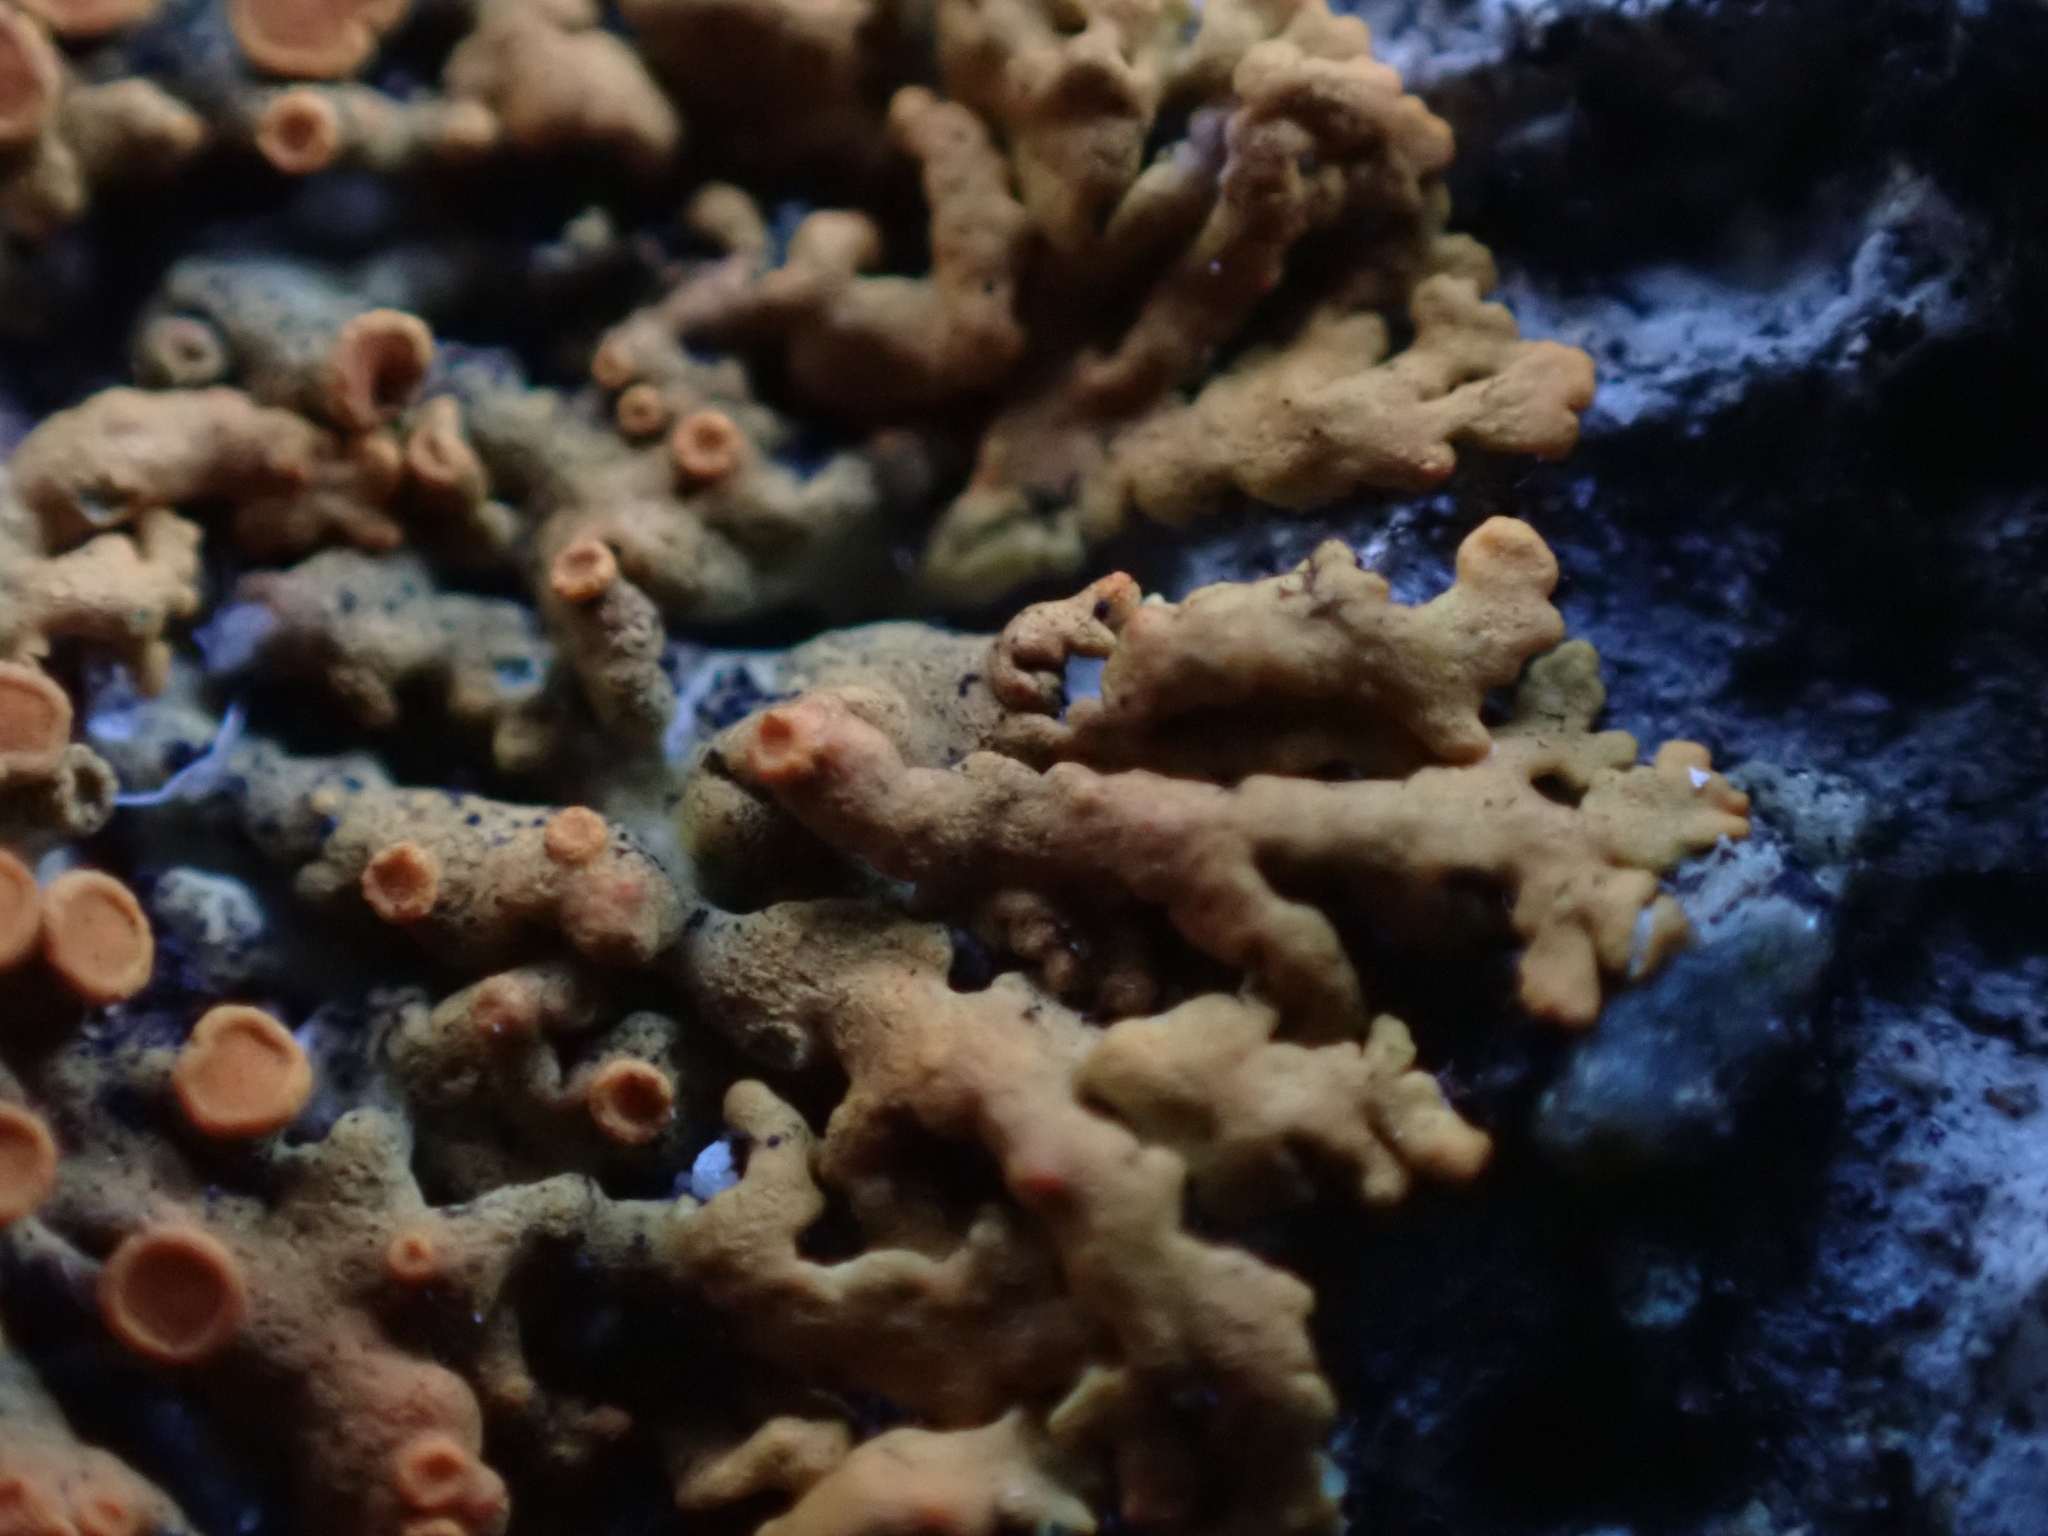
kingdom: Fungi
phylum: Ascomycota
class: Lecanoromycetes
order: Teloschistales
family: Teloschistaceae
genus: Xanthoria
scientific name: Xanthoria elegans
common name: Elegant sunburst lichen
